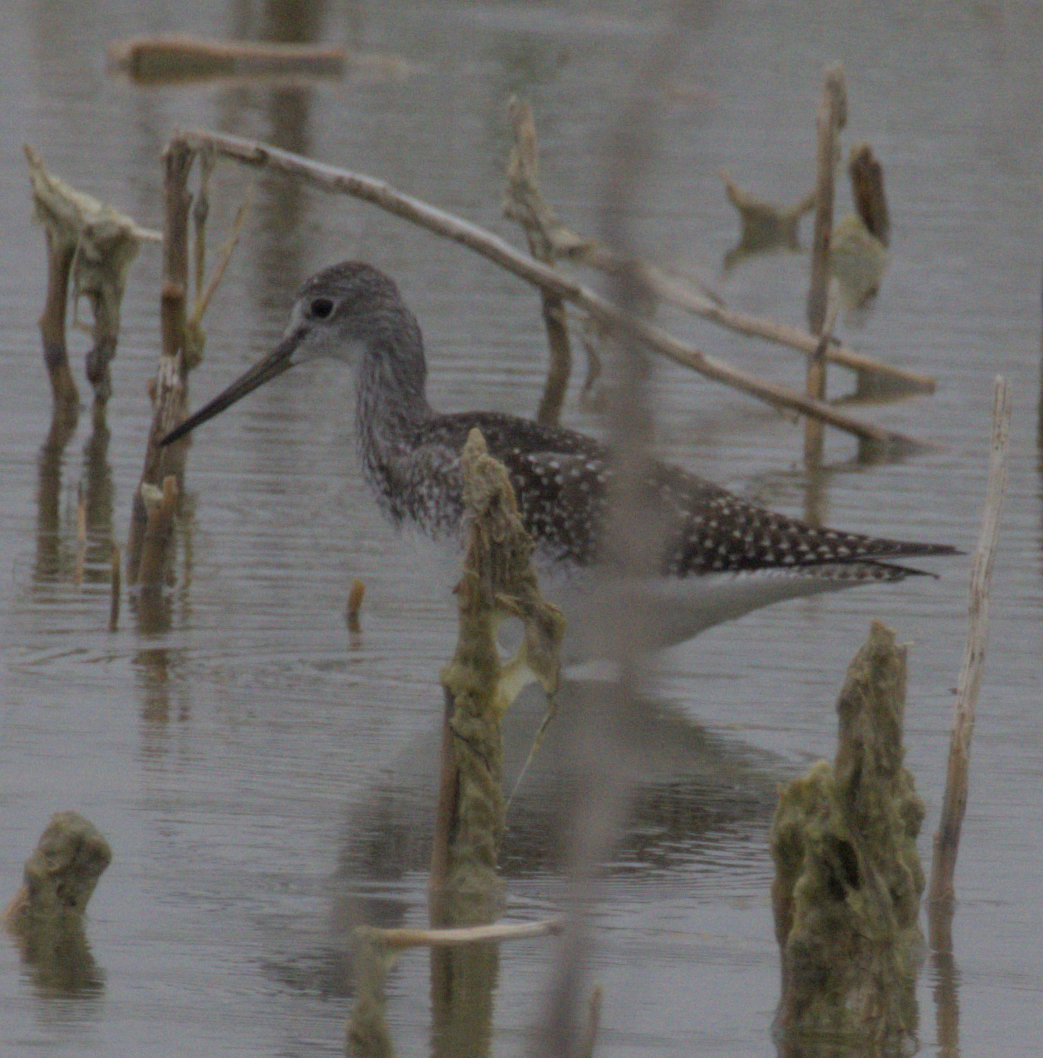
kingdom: Animalia
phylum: Chordata
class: Aves
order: Charadriiformes
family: Scolopacidae
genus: Tringa
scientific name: Tringa melanoleuca
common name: Greater yellowlegs
